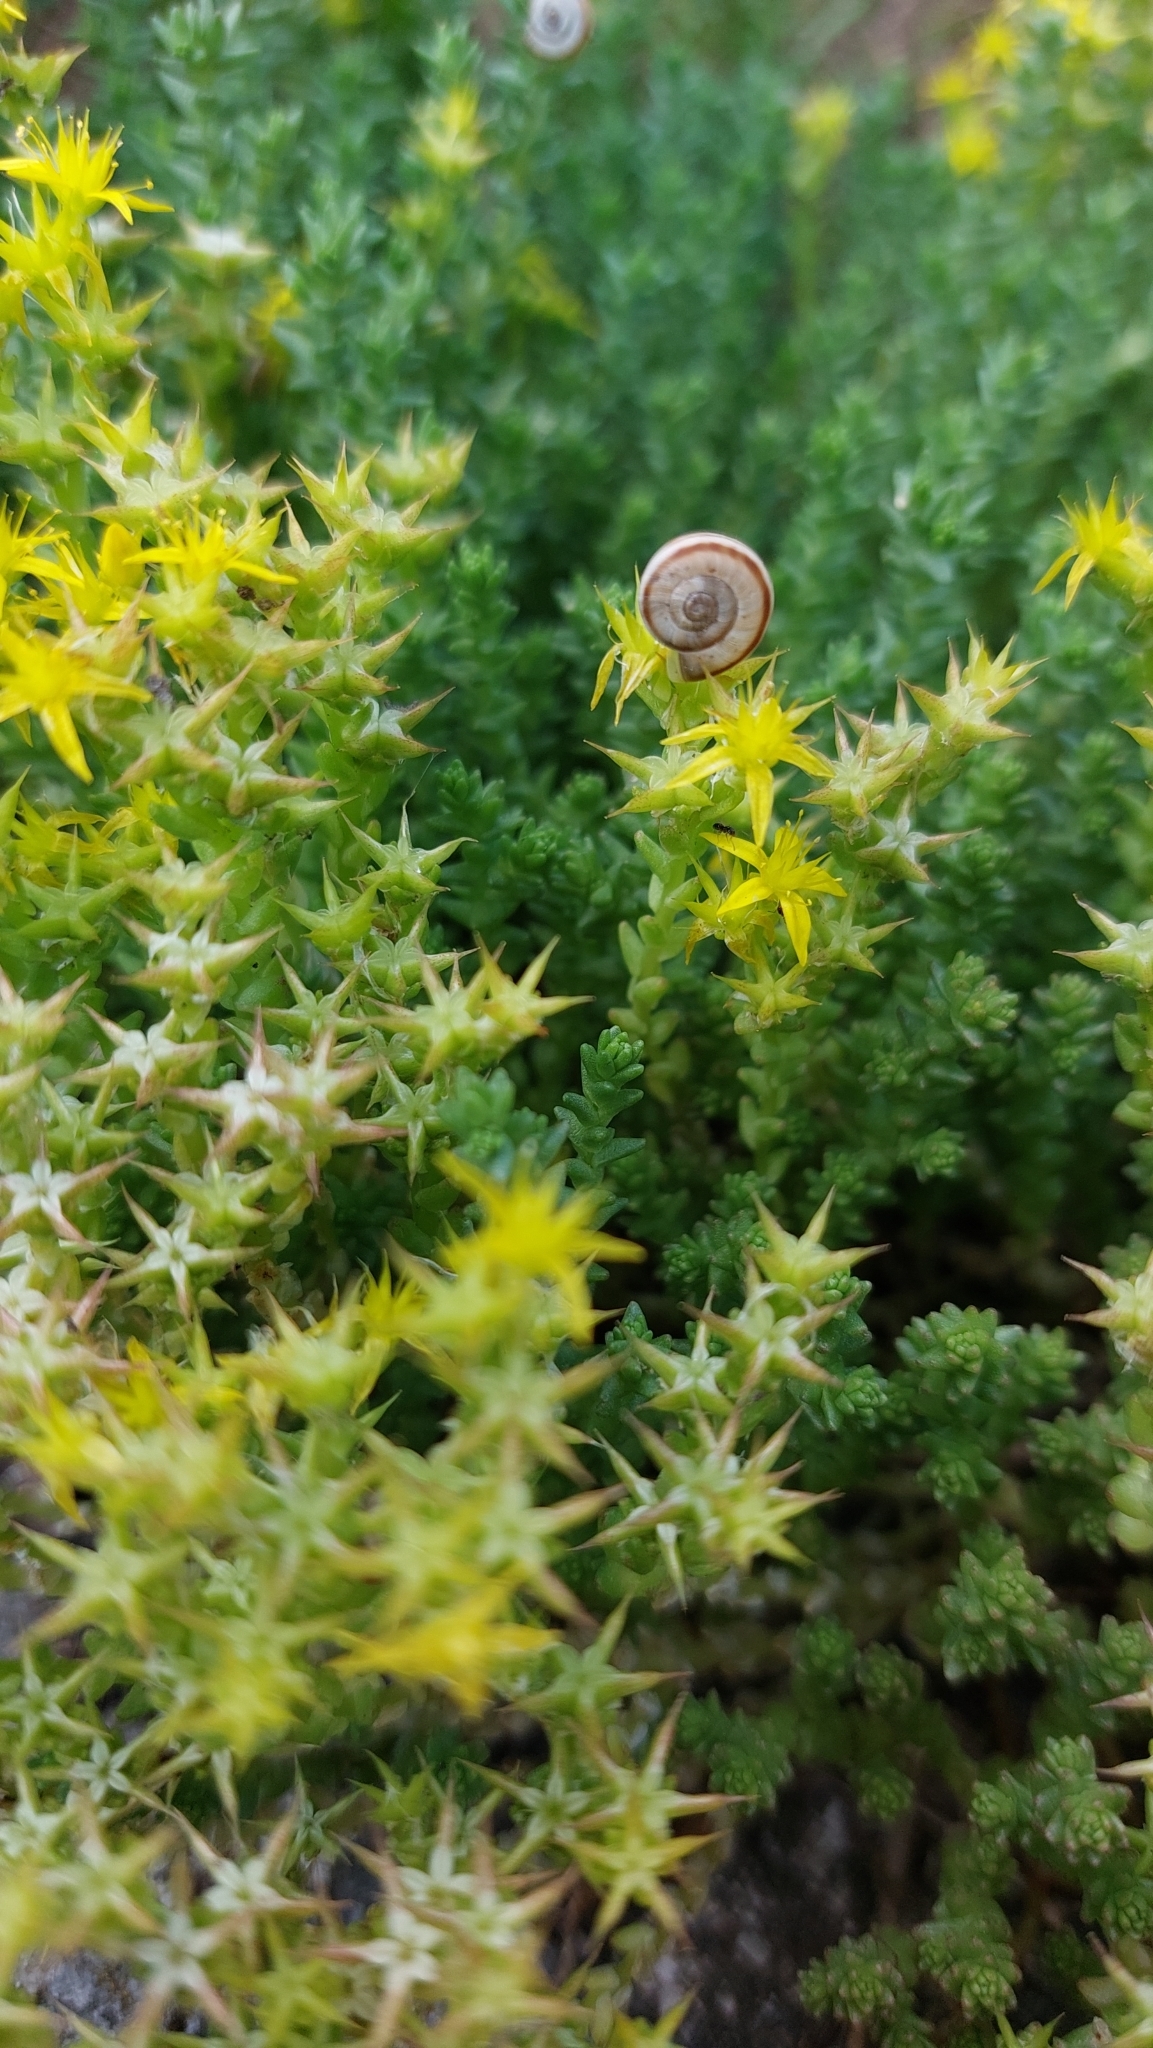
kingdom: Plantae
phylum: Tracheophyta
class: Magnoliopsida
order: Saxifragales
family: Crassulaceae
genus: Sedum
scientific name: Sedum acre
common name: Biting stonecrop
